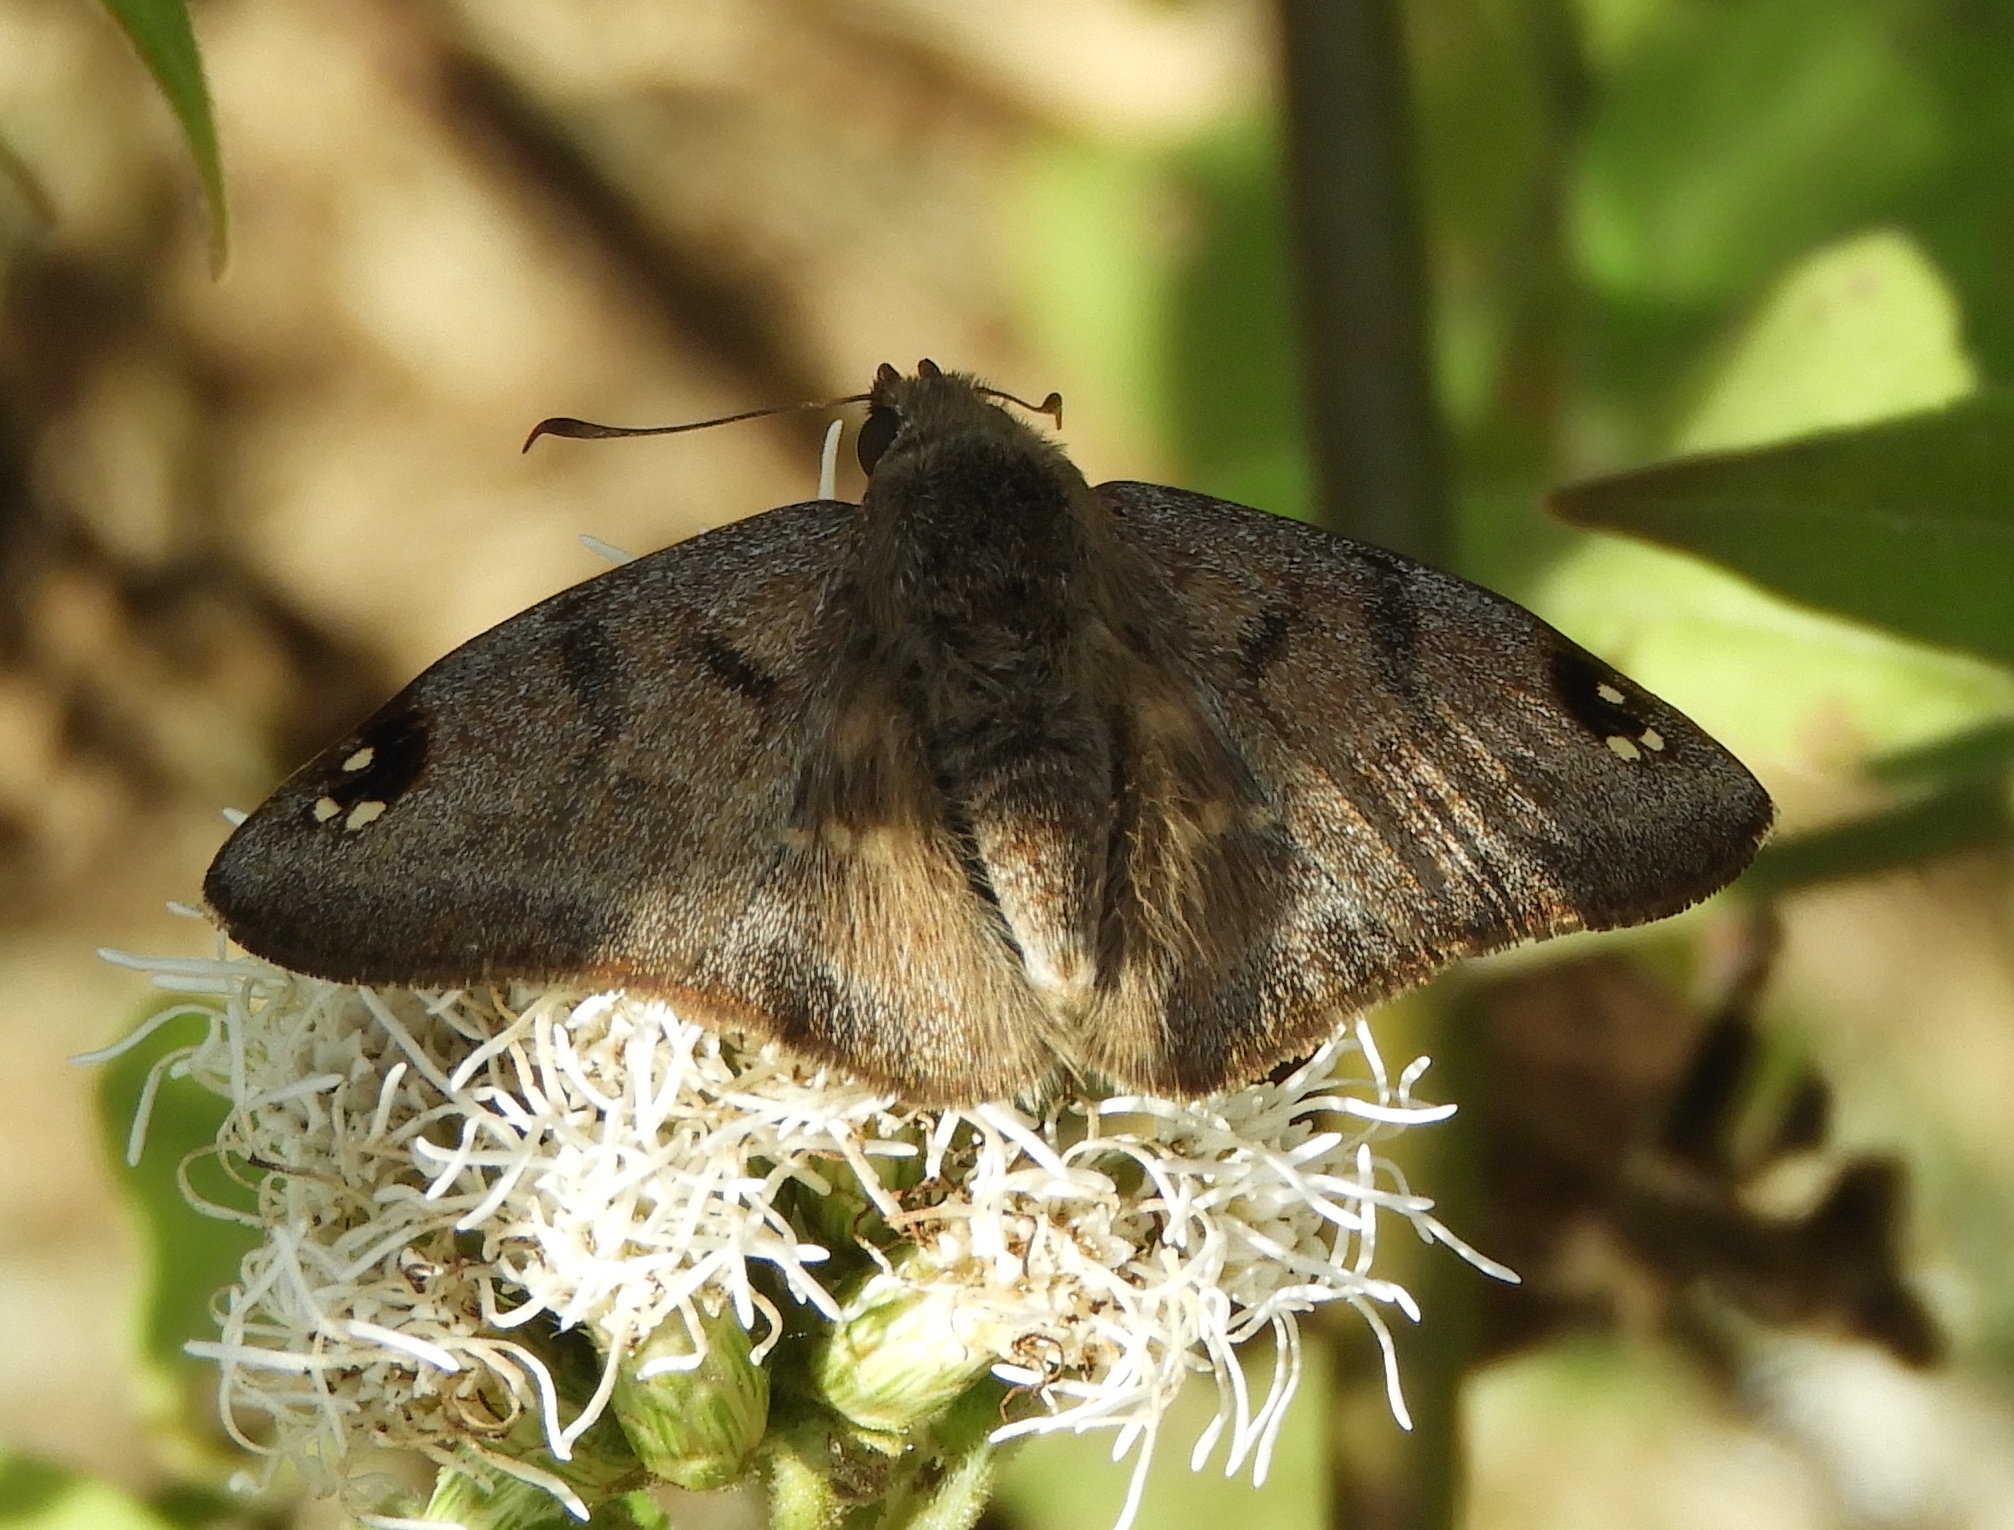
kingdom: Animalia
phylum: Arthropoda
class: Insecta
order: Lepidoptera
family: Hesperiidae
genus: Arteurotia
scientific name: Arteurotia tractipennis
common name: Starred skipper
